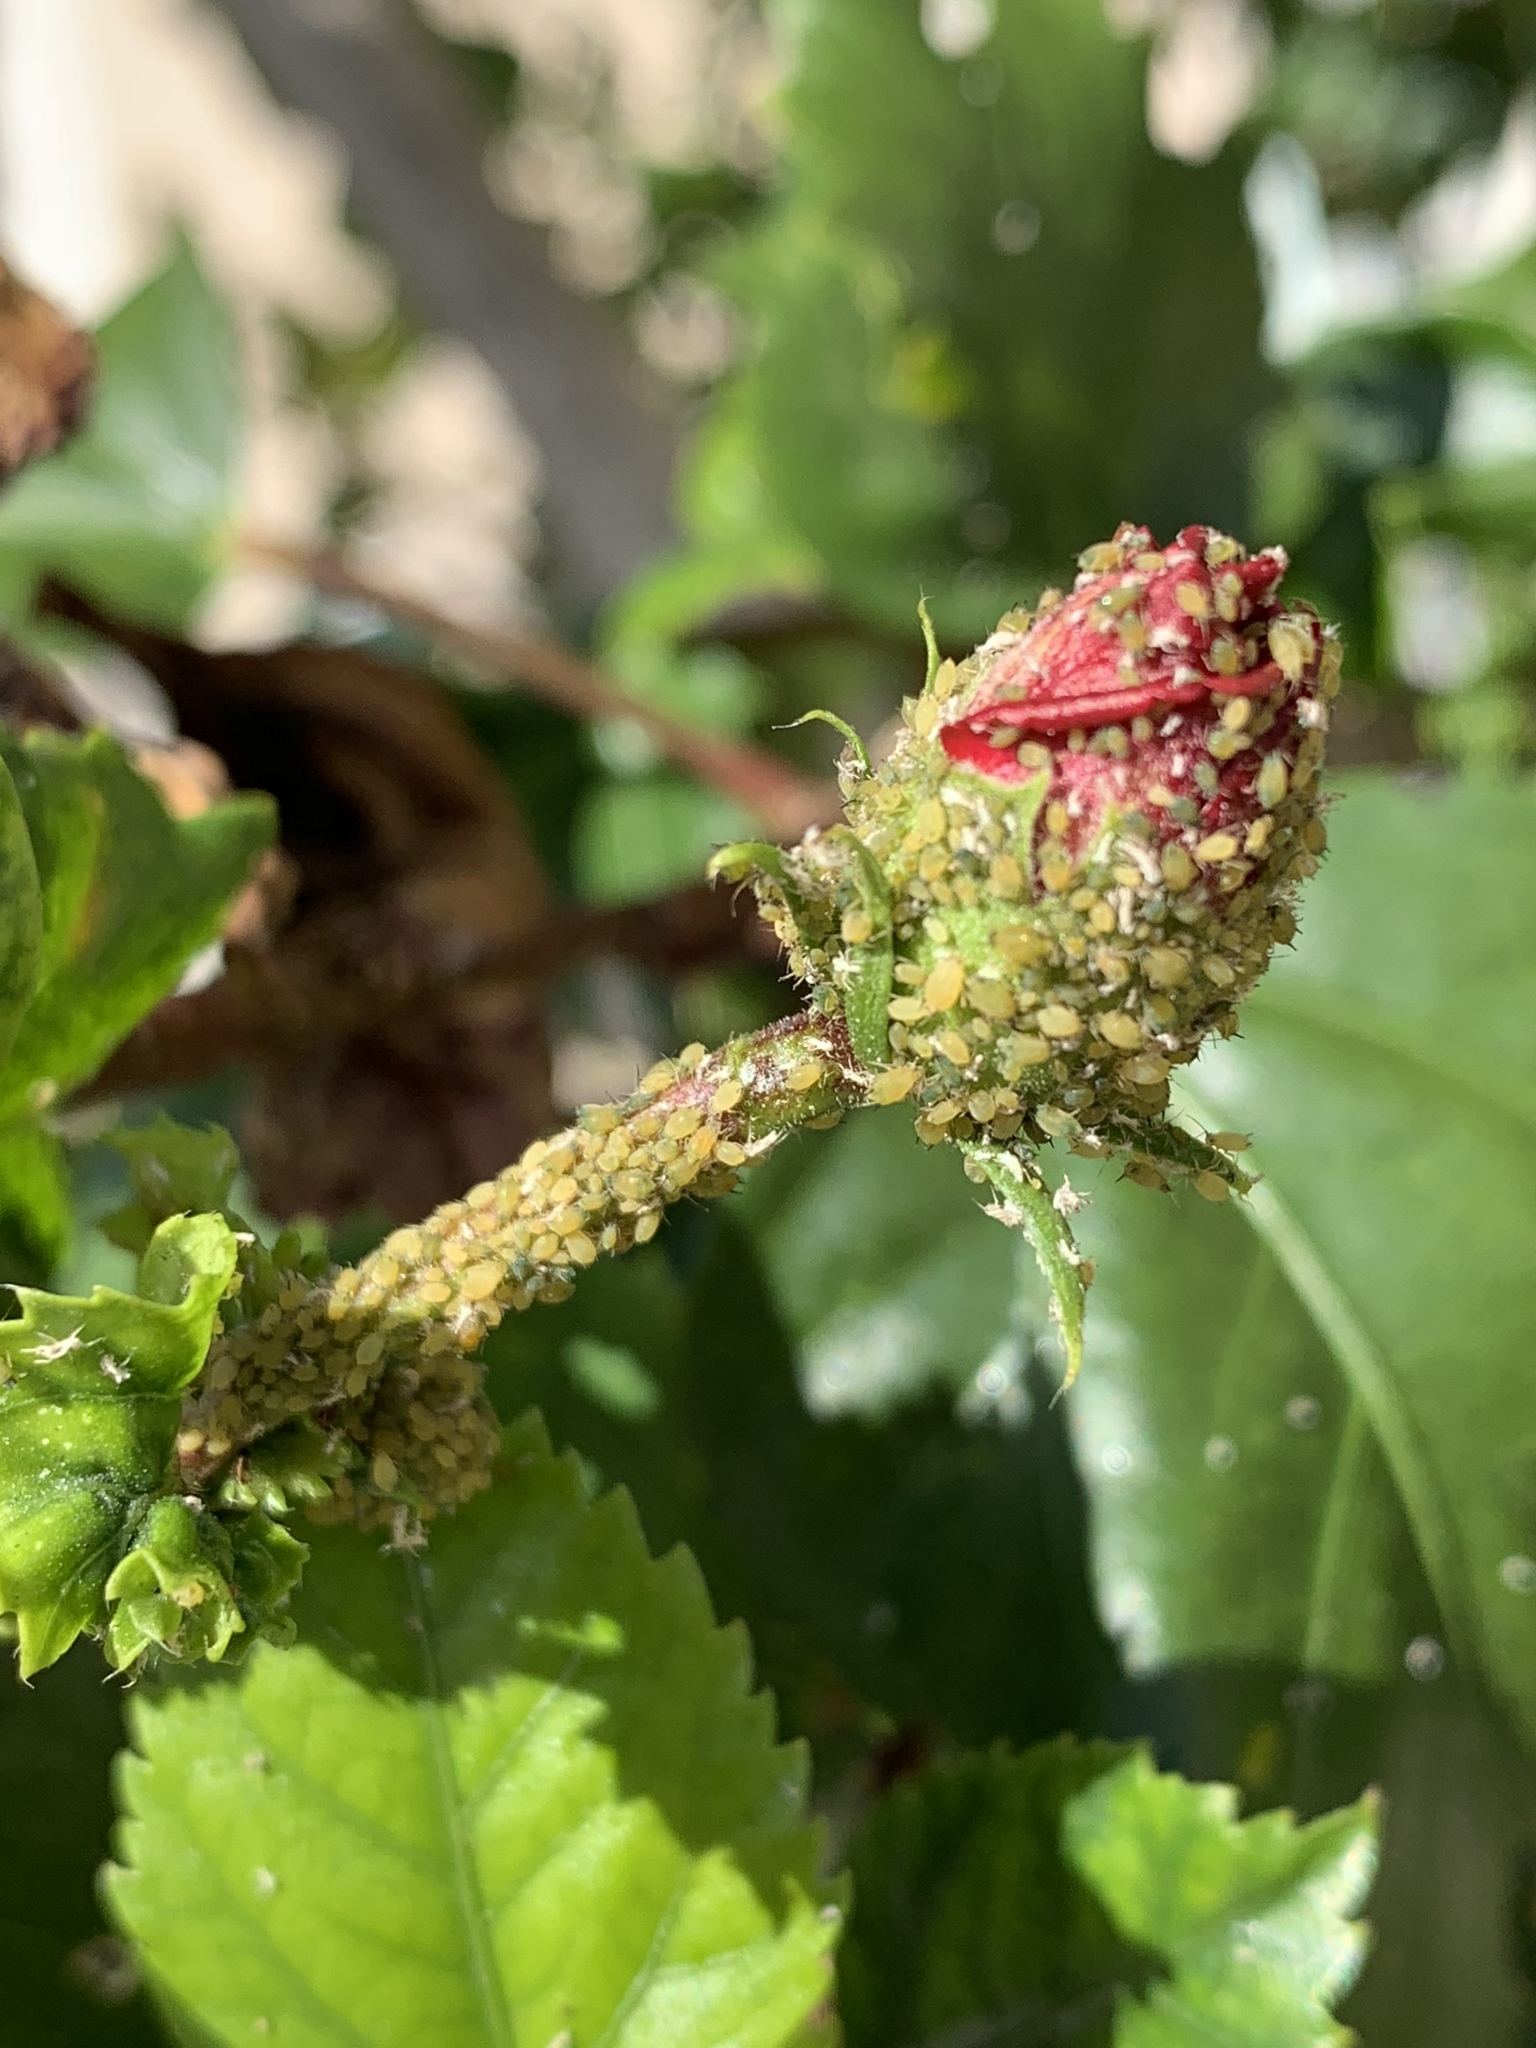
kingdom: Animalia
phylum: Arthropoda
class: Insecta
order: Hemiptera
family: Aphididae
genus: Aphis
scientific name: Aphis gossypii
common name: Melon aphid
